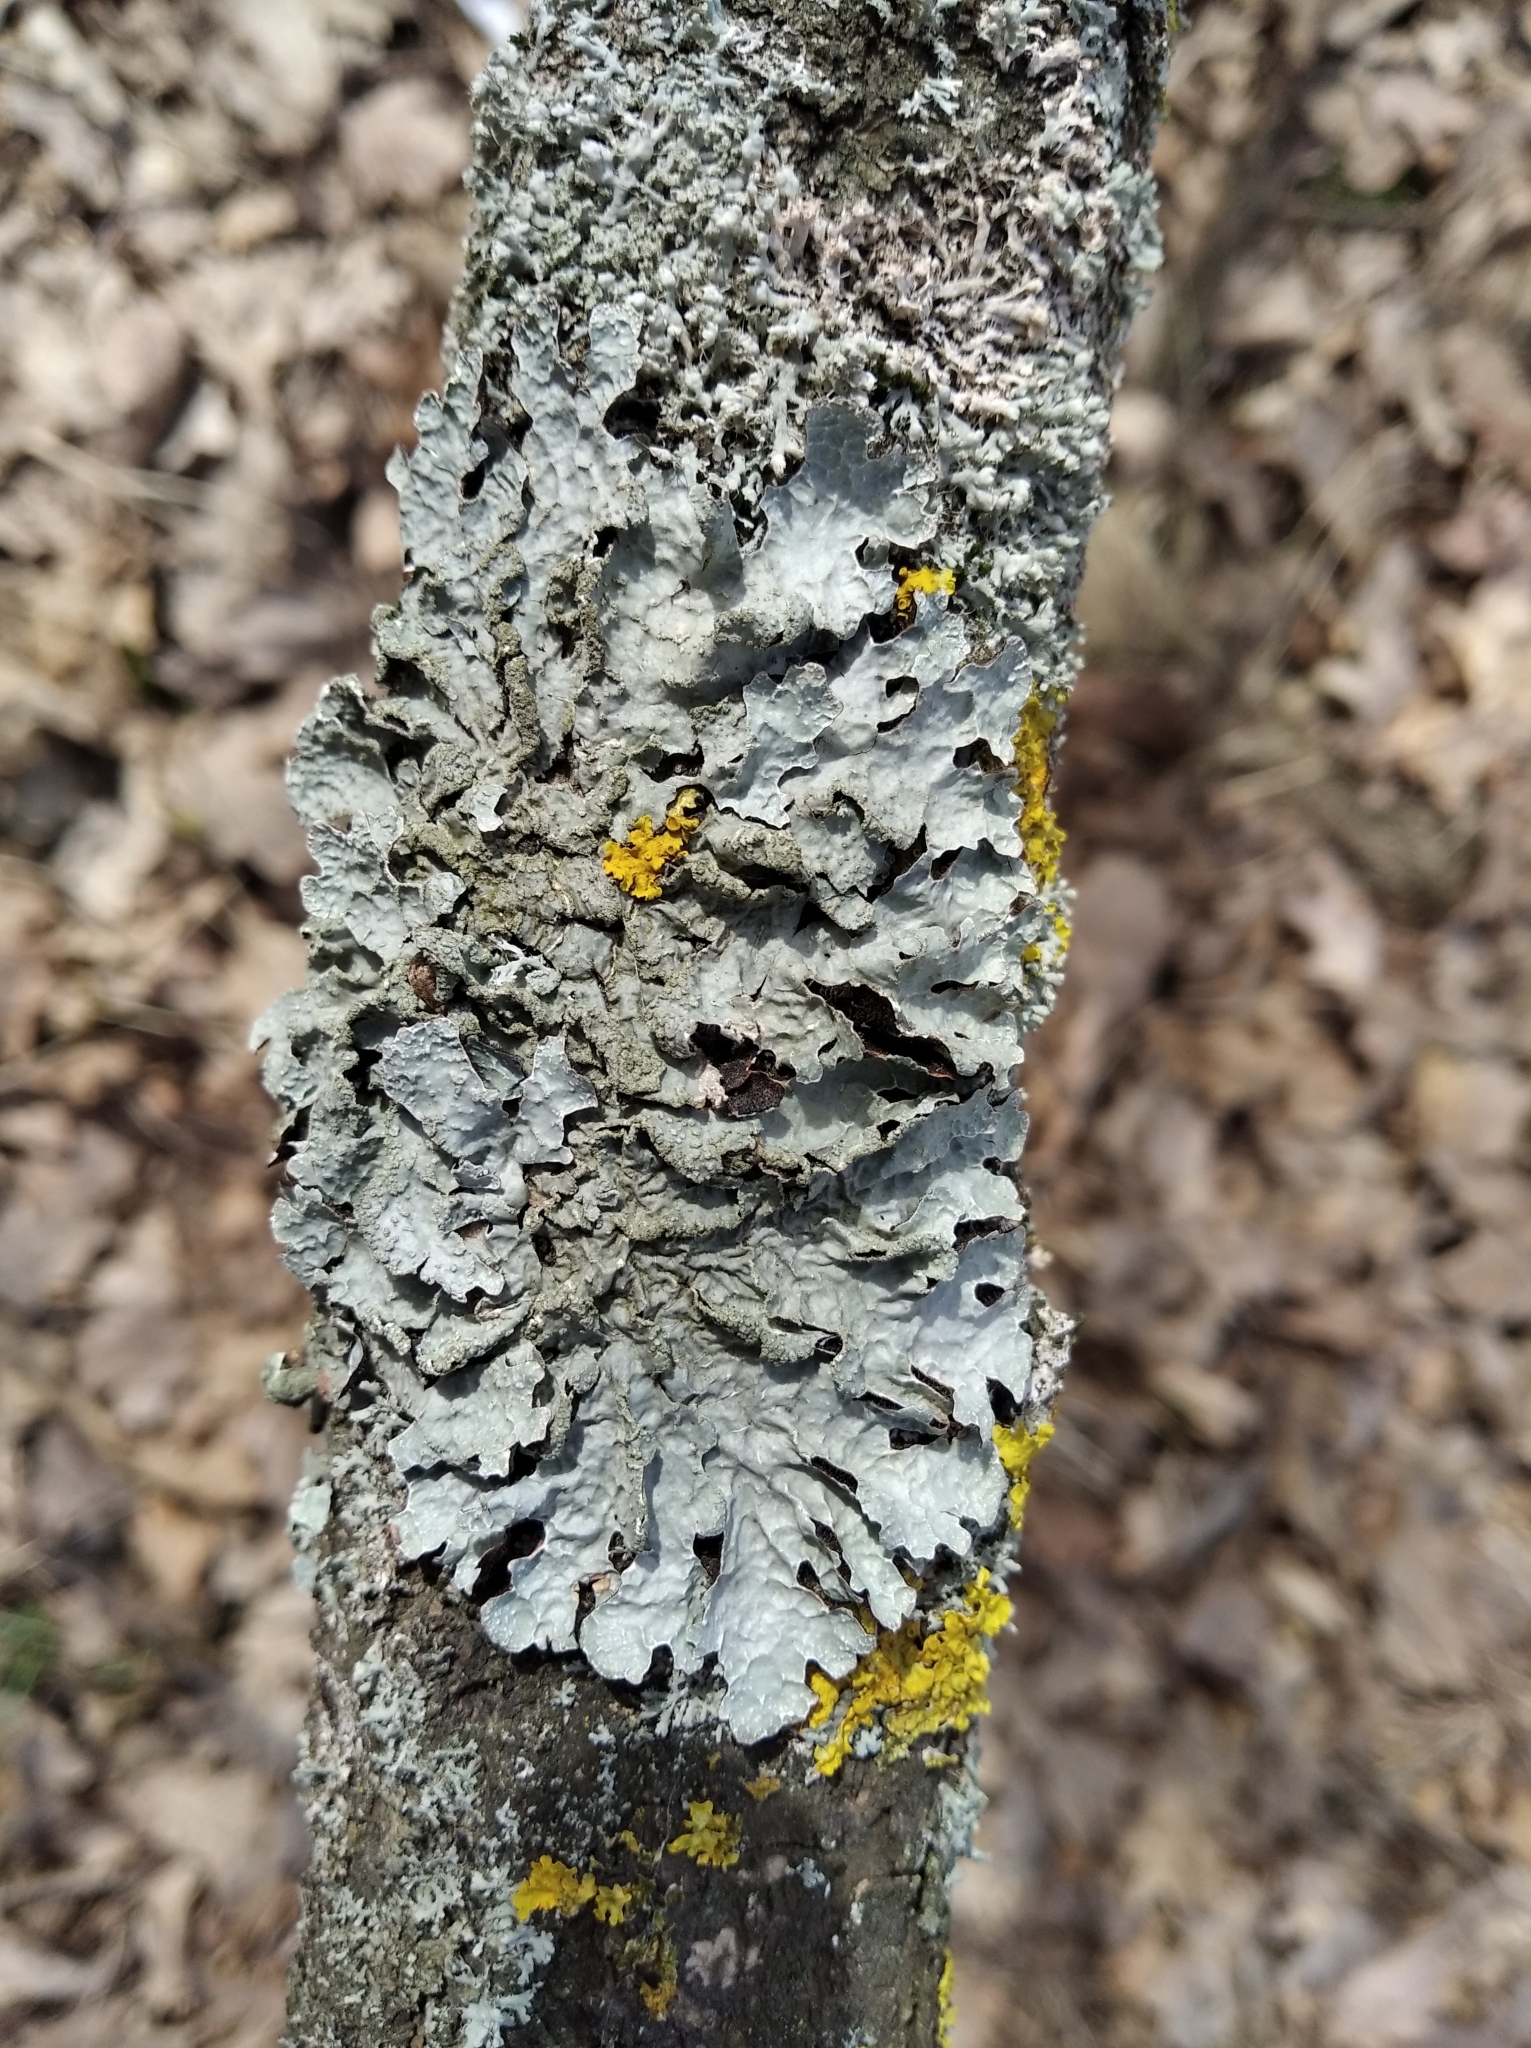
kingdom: Fungi
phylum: Ascomycota
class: Lecanoromycetes
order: Lecanorales
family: Parmeliaceae
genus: Parmelia
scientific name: Parmelia sulcata
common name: Netted shield lichen
